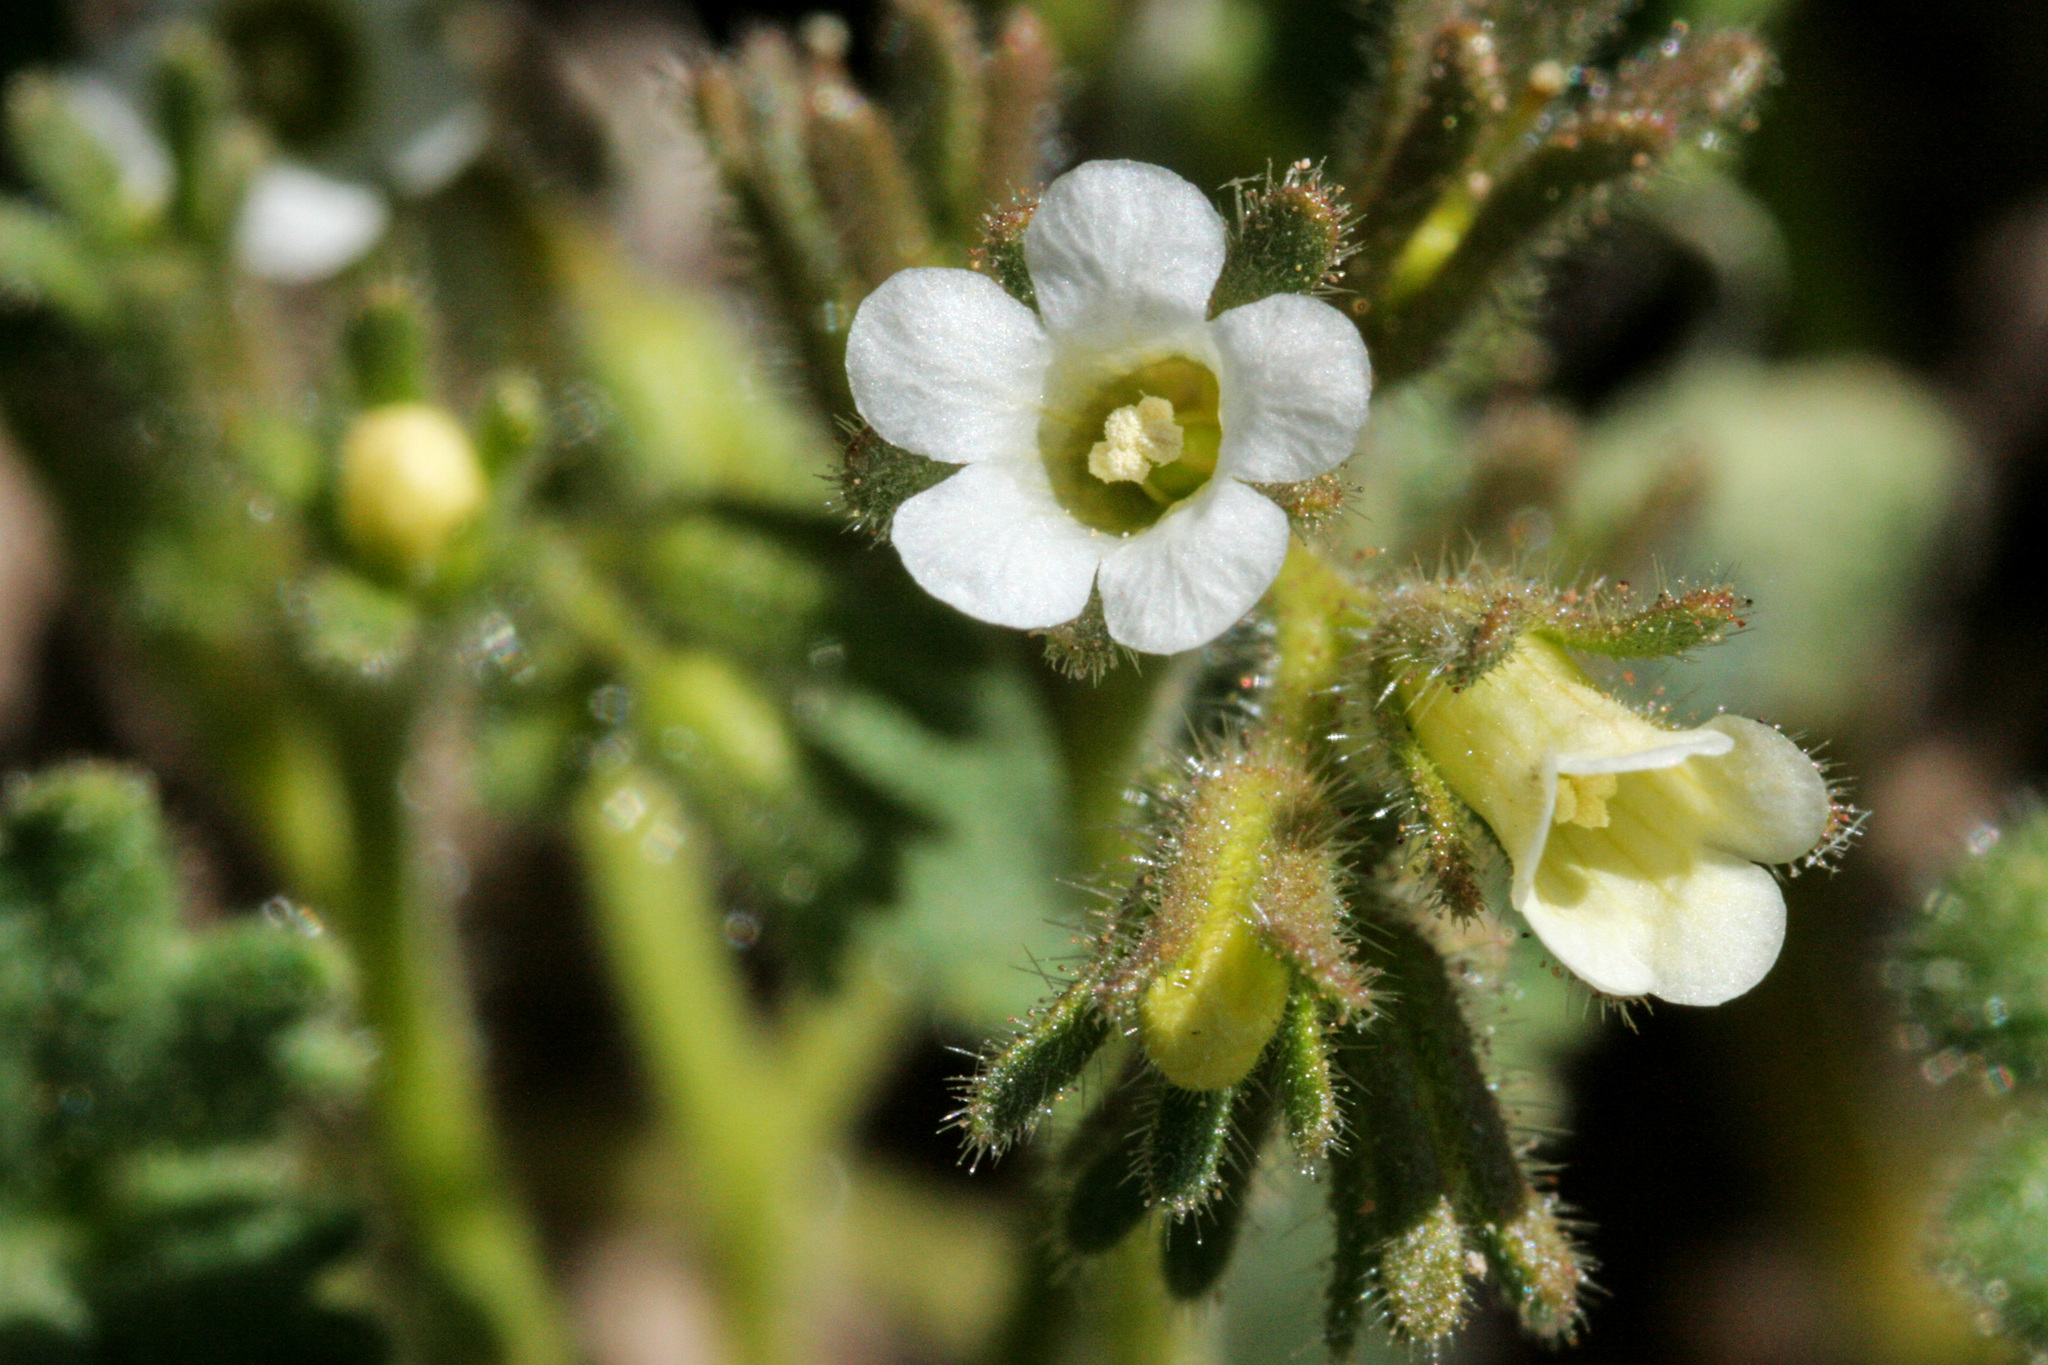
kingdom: Plantae
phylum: Tracheophyta
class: Magnoliopsida
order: Boraginales
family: Hydrophyllaceae
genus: Phacelia
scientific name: Phacelia rotundifolia
